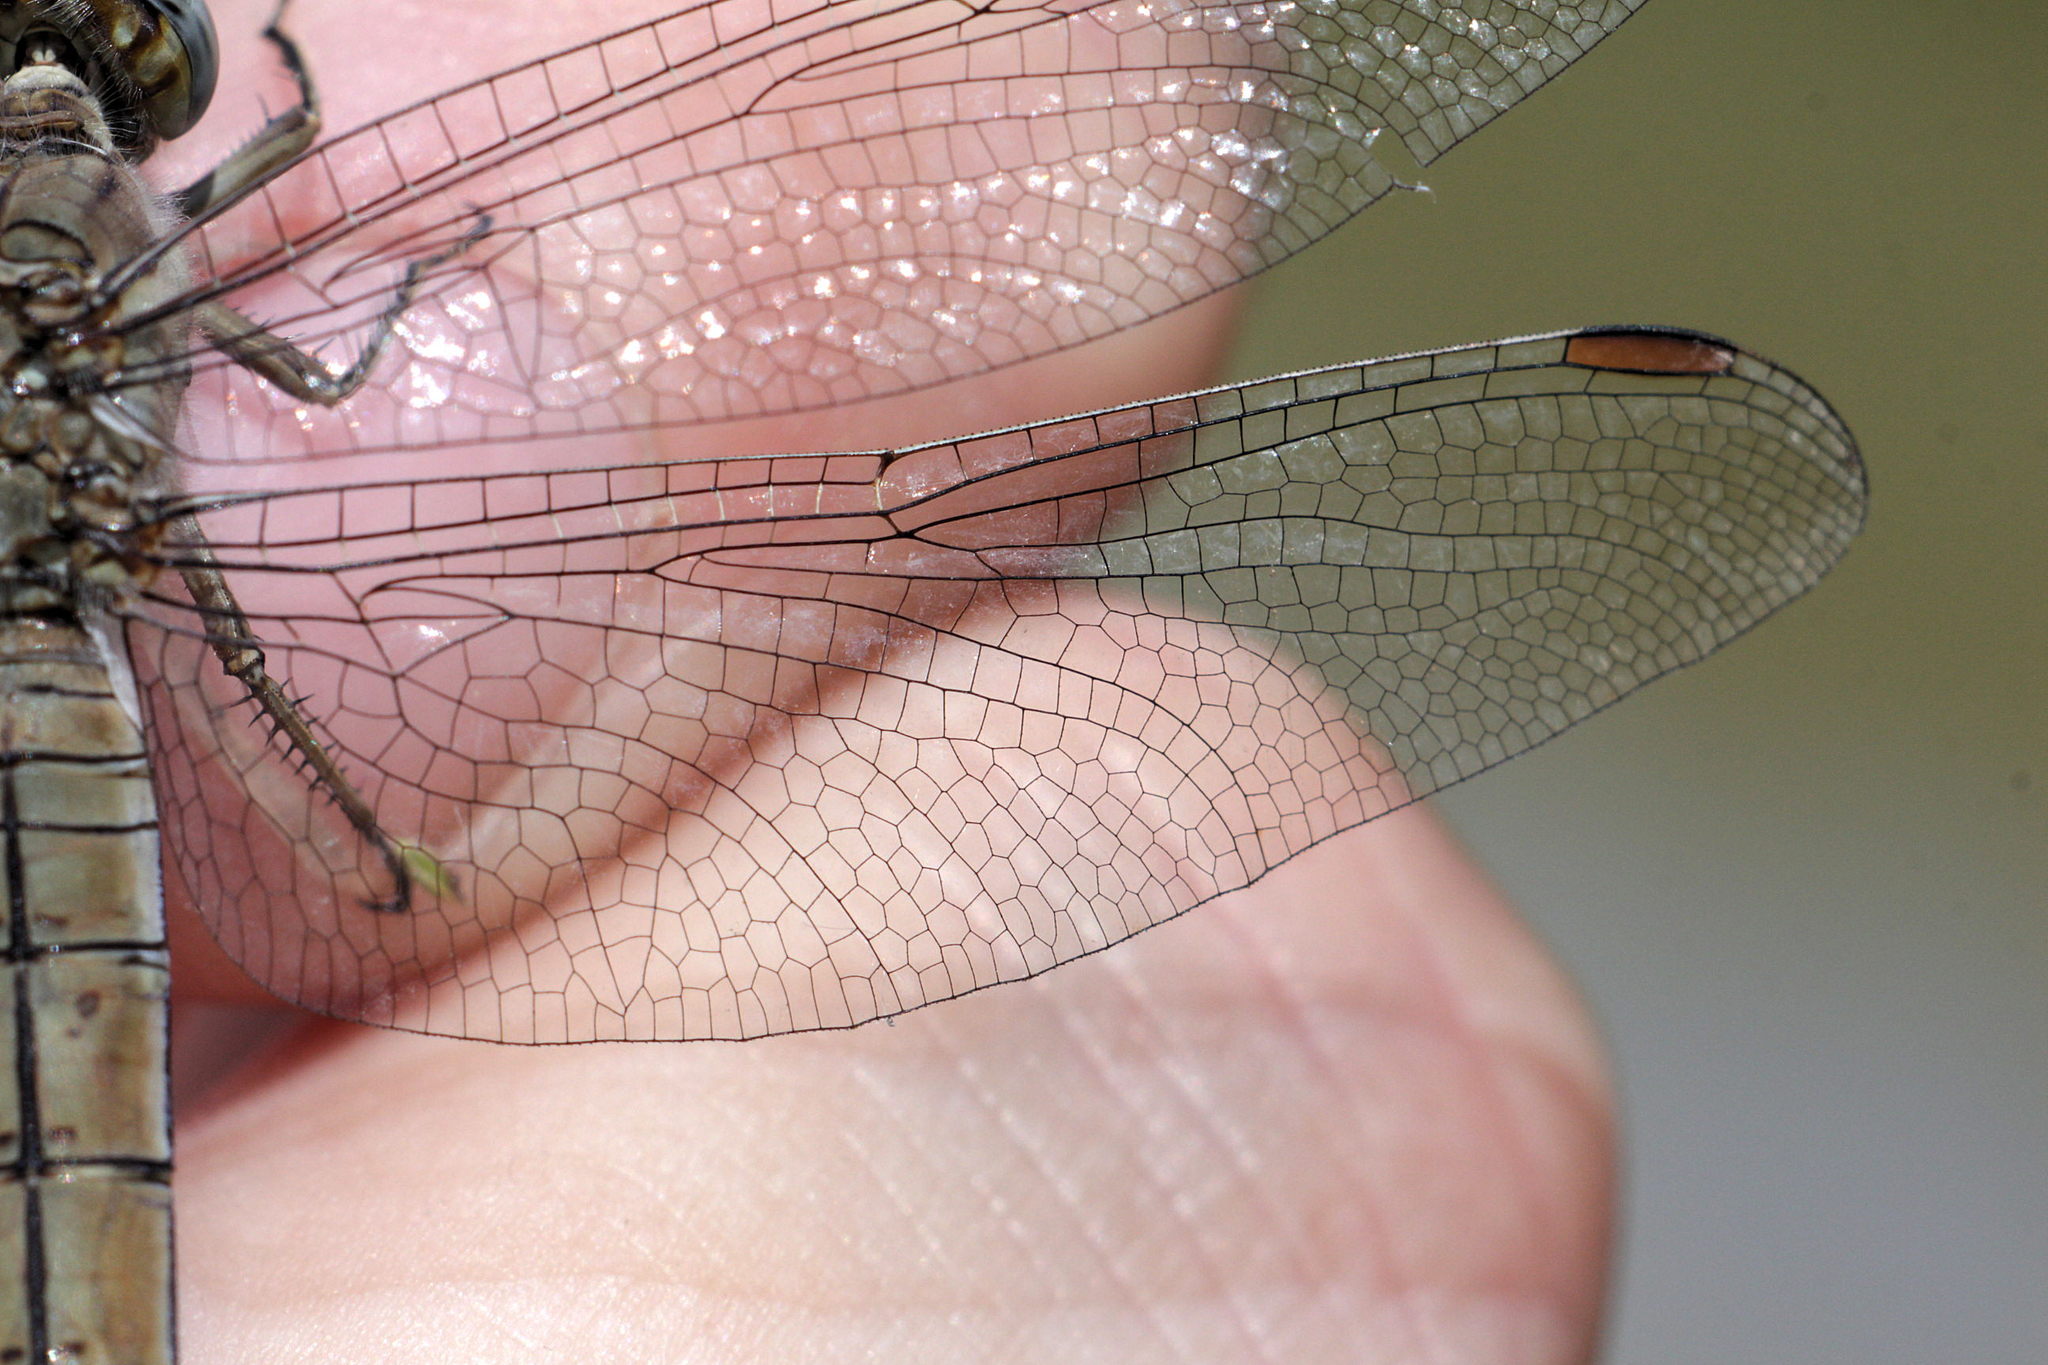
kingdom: Animalia
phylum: Arthropoda
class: Insecta
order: Odonata
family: Libellulidae
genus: Orthetrum
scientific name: Orthetrum brunneum
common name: Southern skimmer
